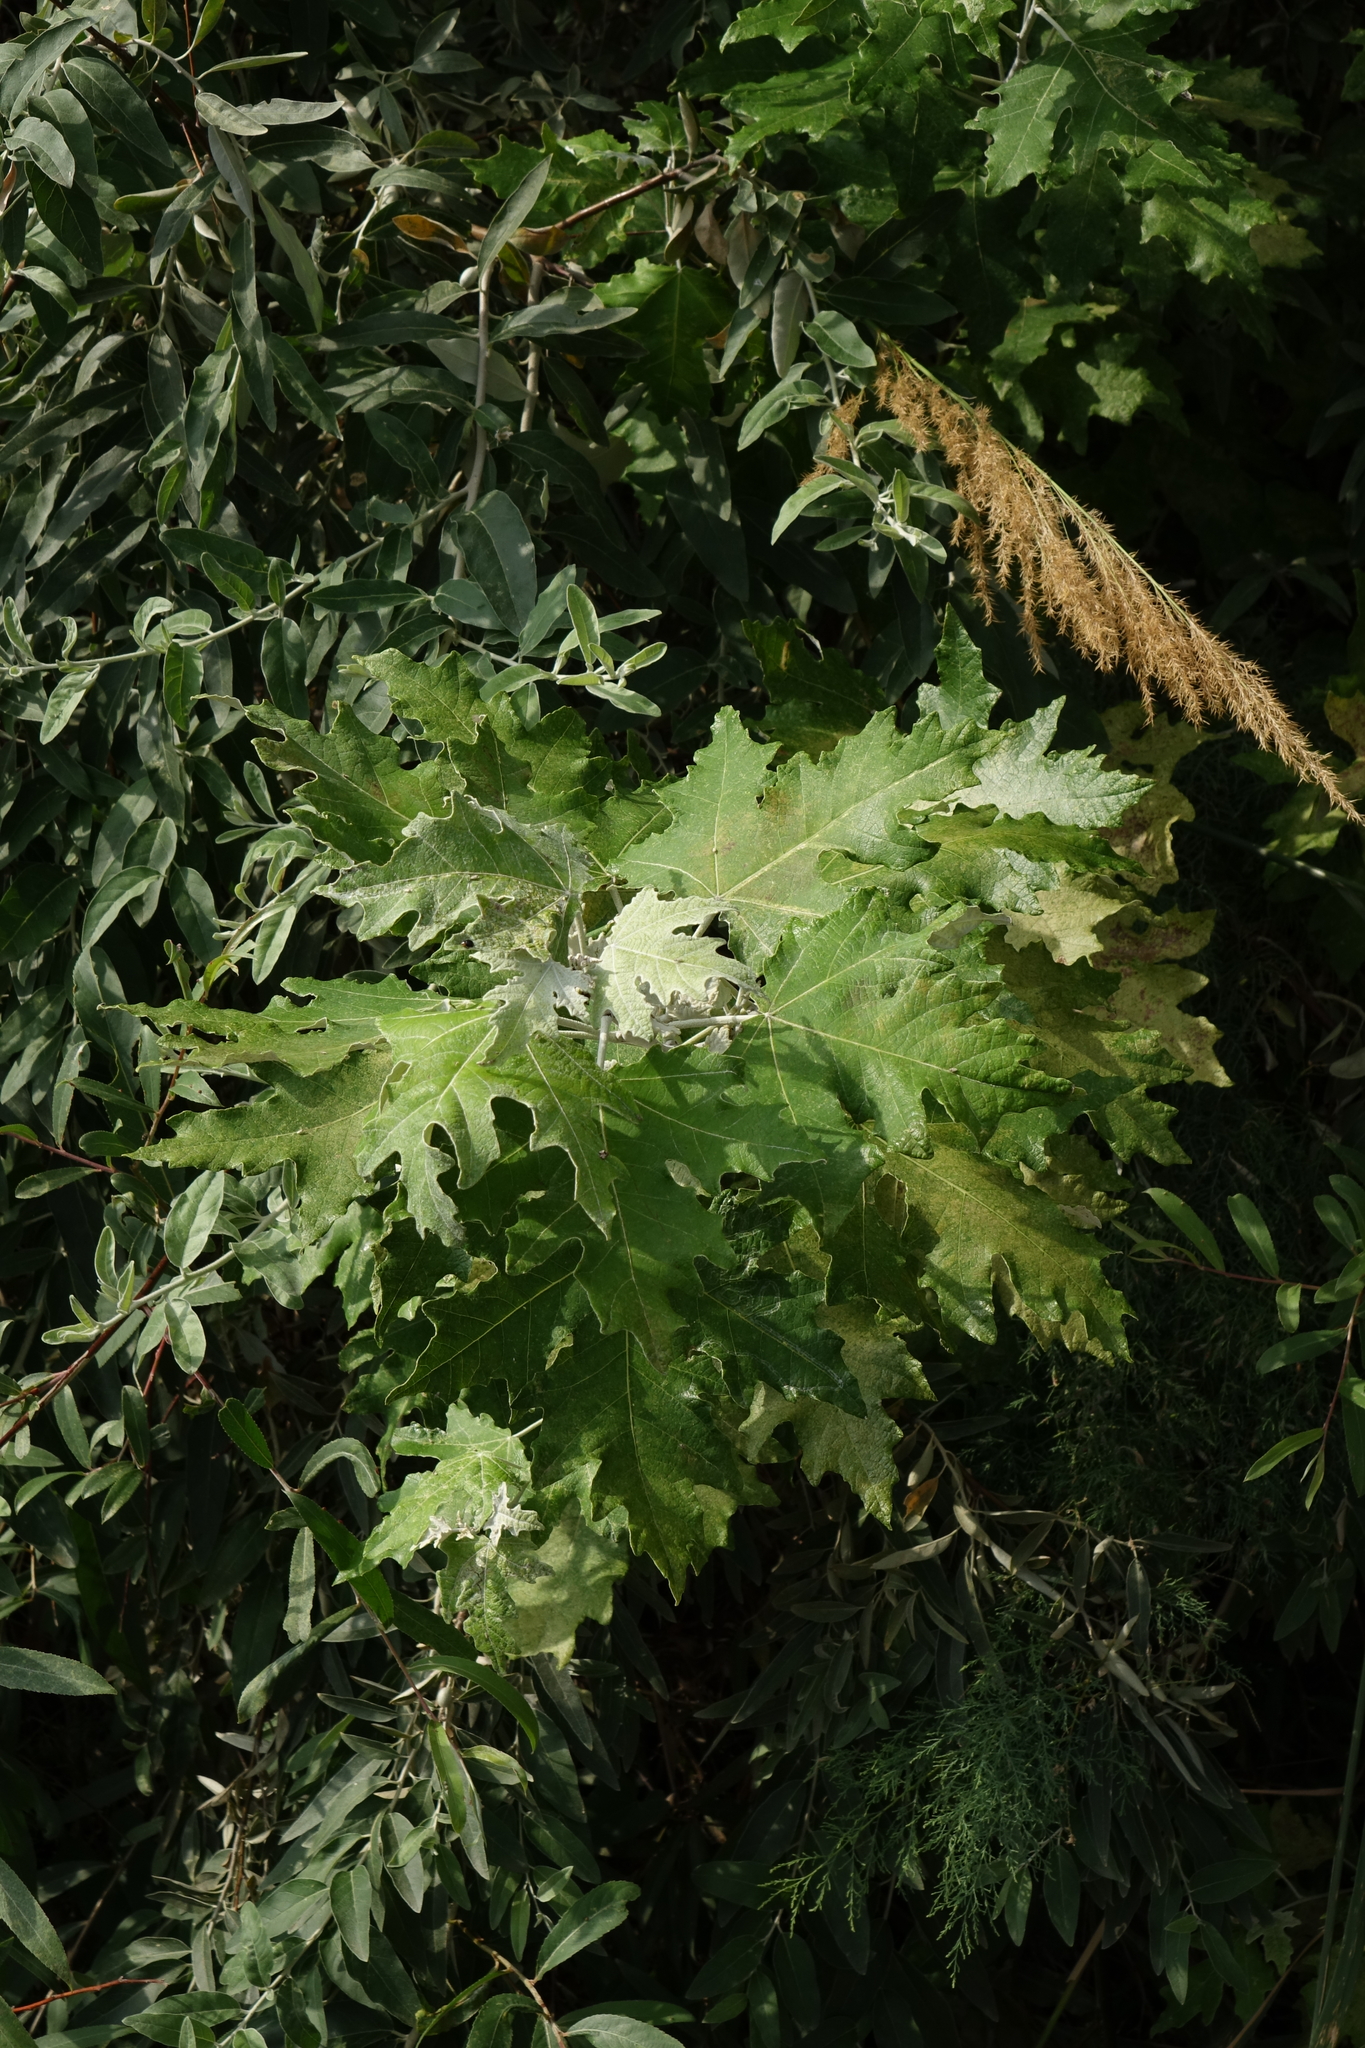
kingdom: Plantae
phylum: Tracheophyta
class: Magnoliopsida
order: Malpighiales
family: Salicaceae
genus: Populus
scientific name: Populus alba
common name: White poplar
